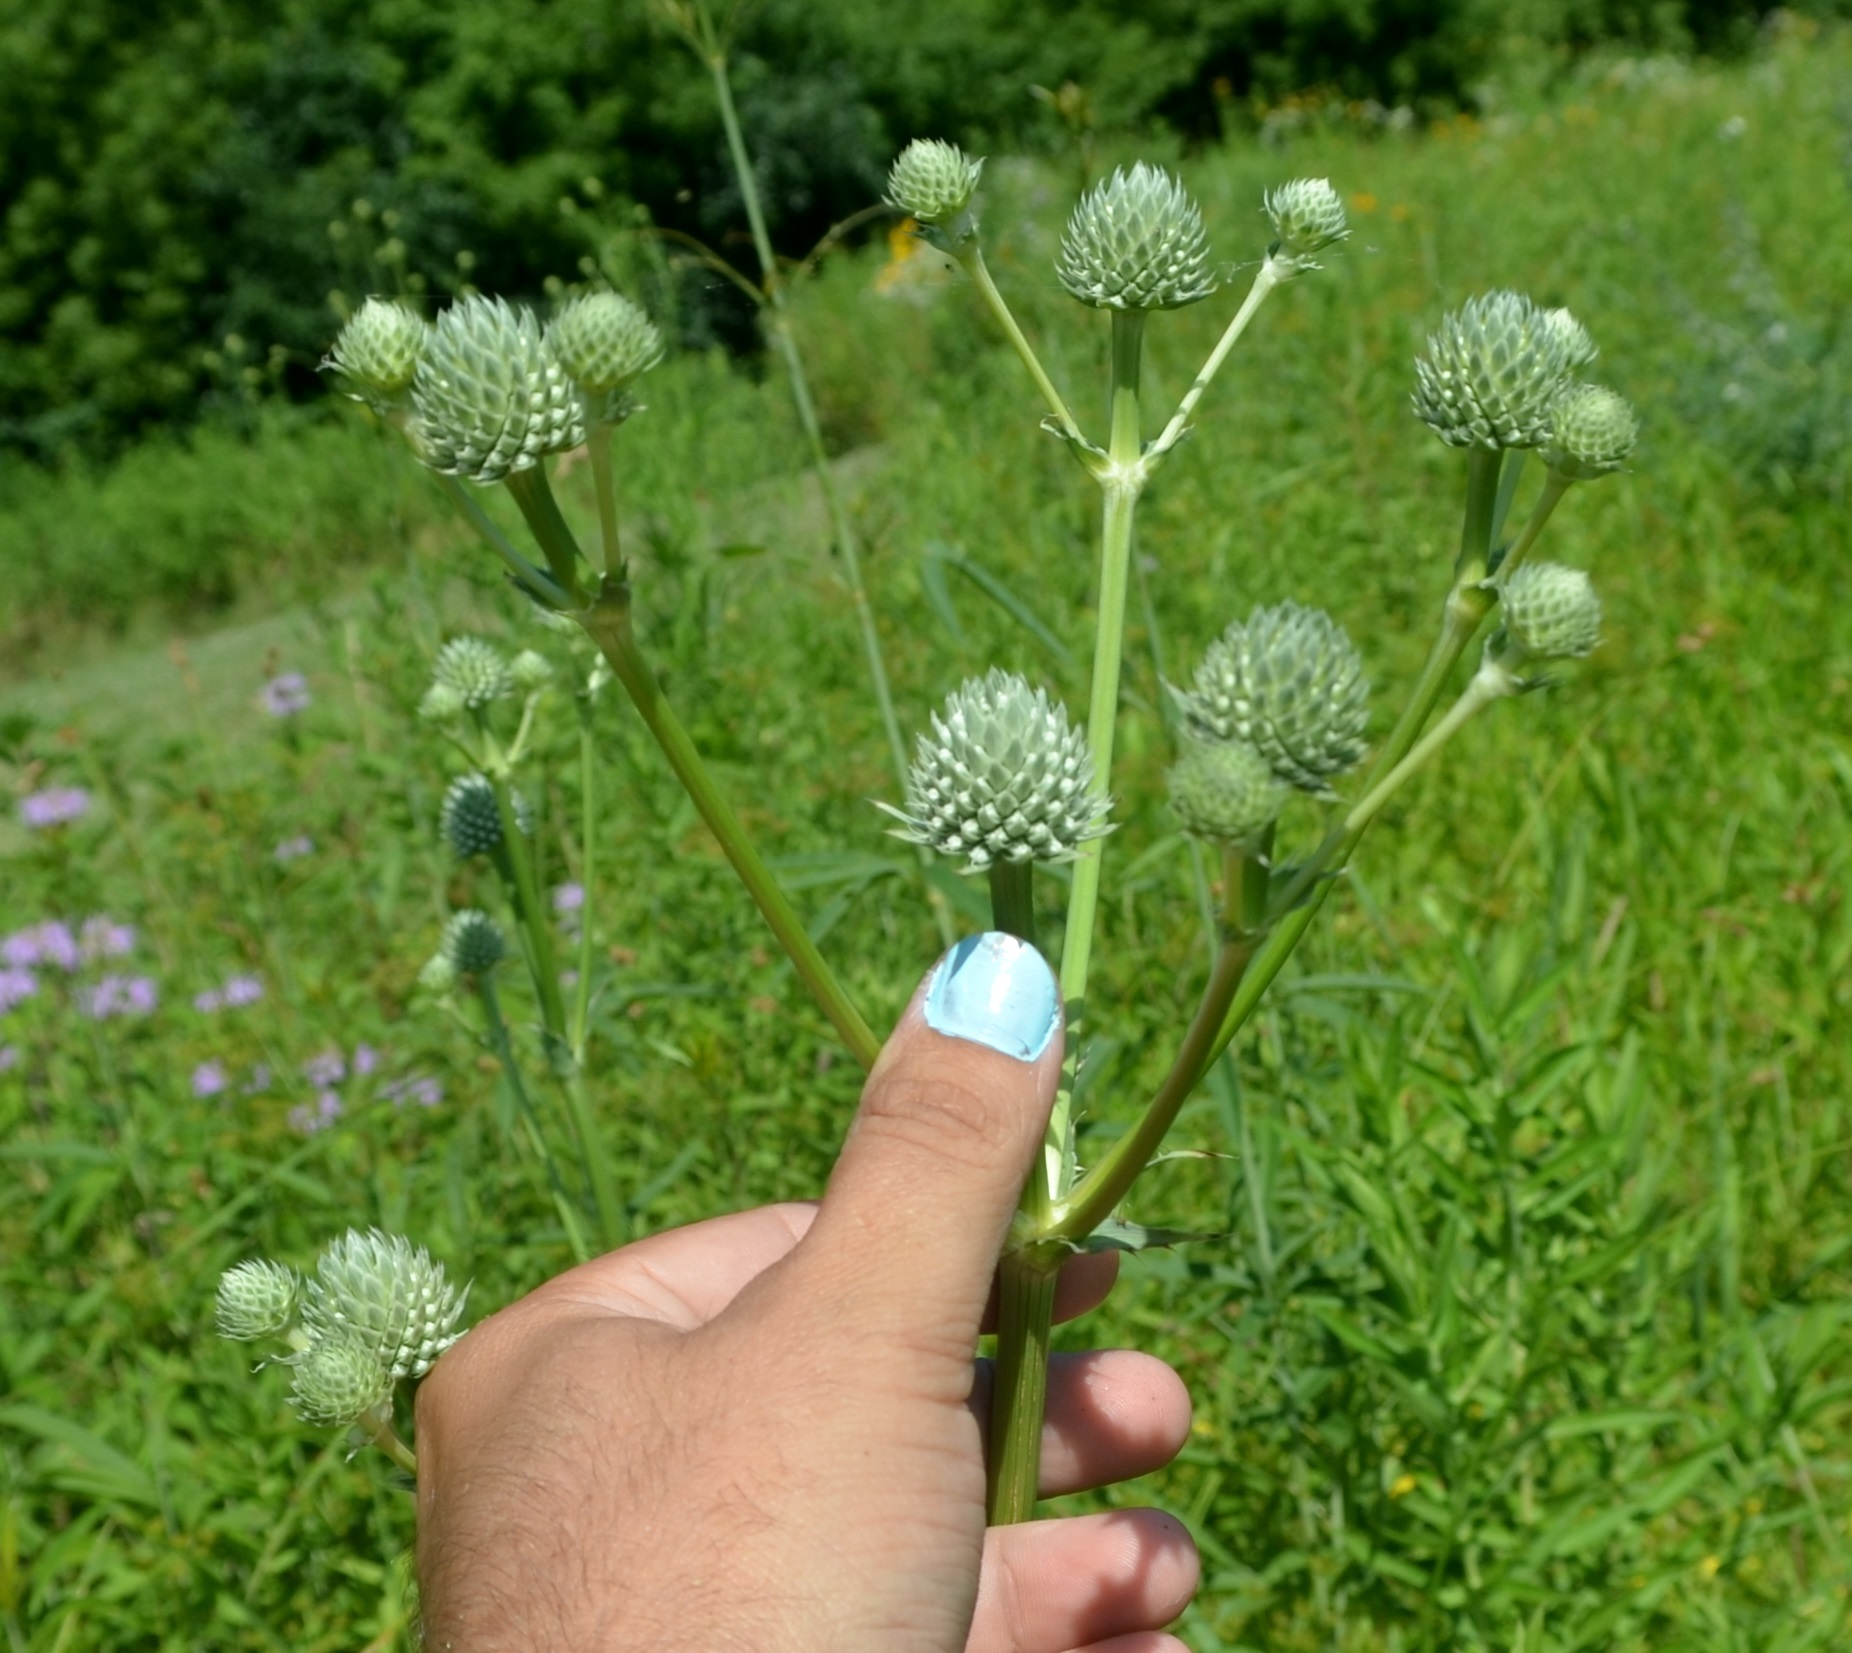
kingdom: Plantae
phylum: Tracheophyta
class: Magnoliopsida
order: Apiales
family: Apiaceae
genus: Eryngium
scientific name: Eryngium yuccifolium
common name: Button eryngo
